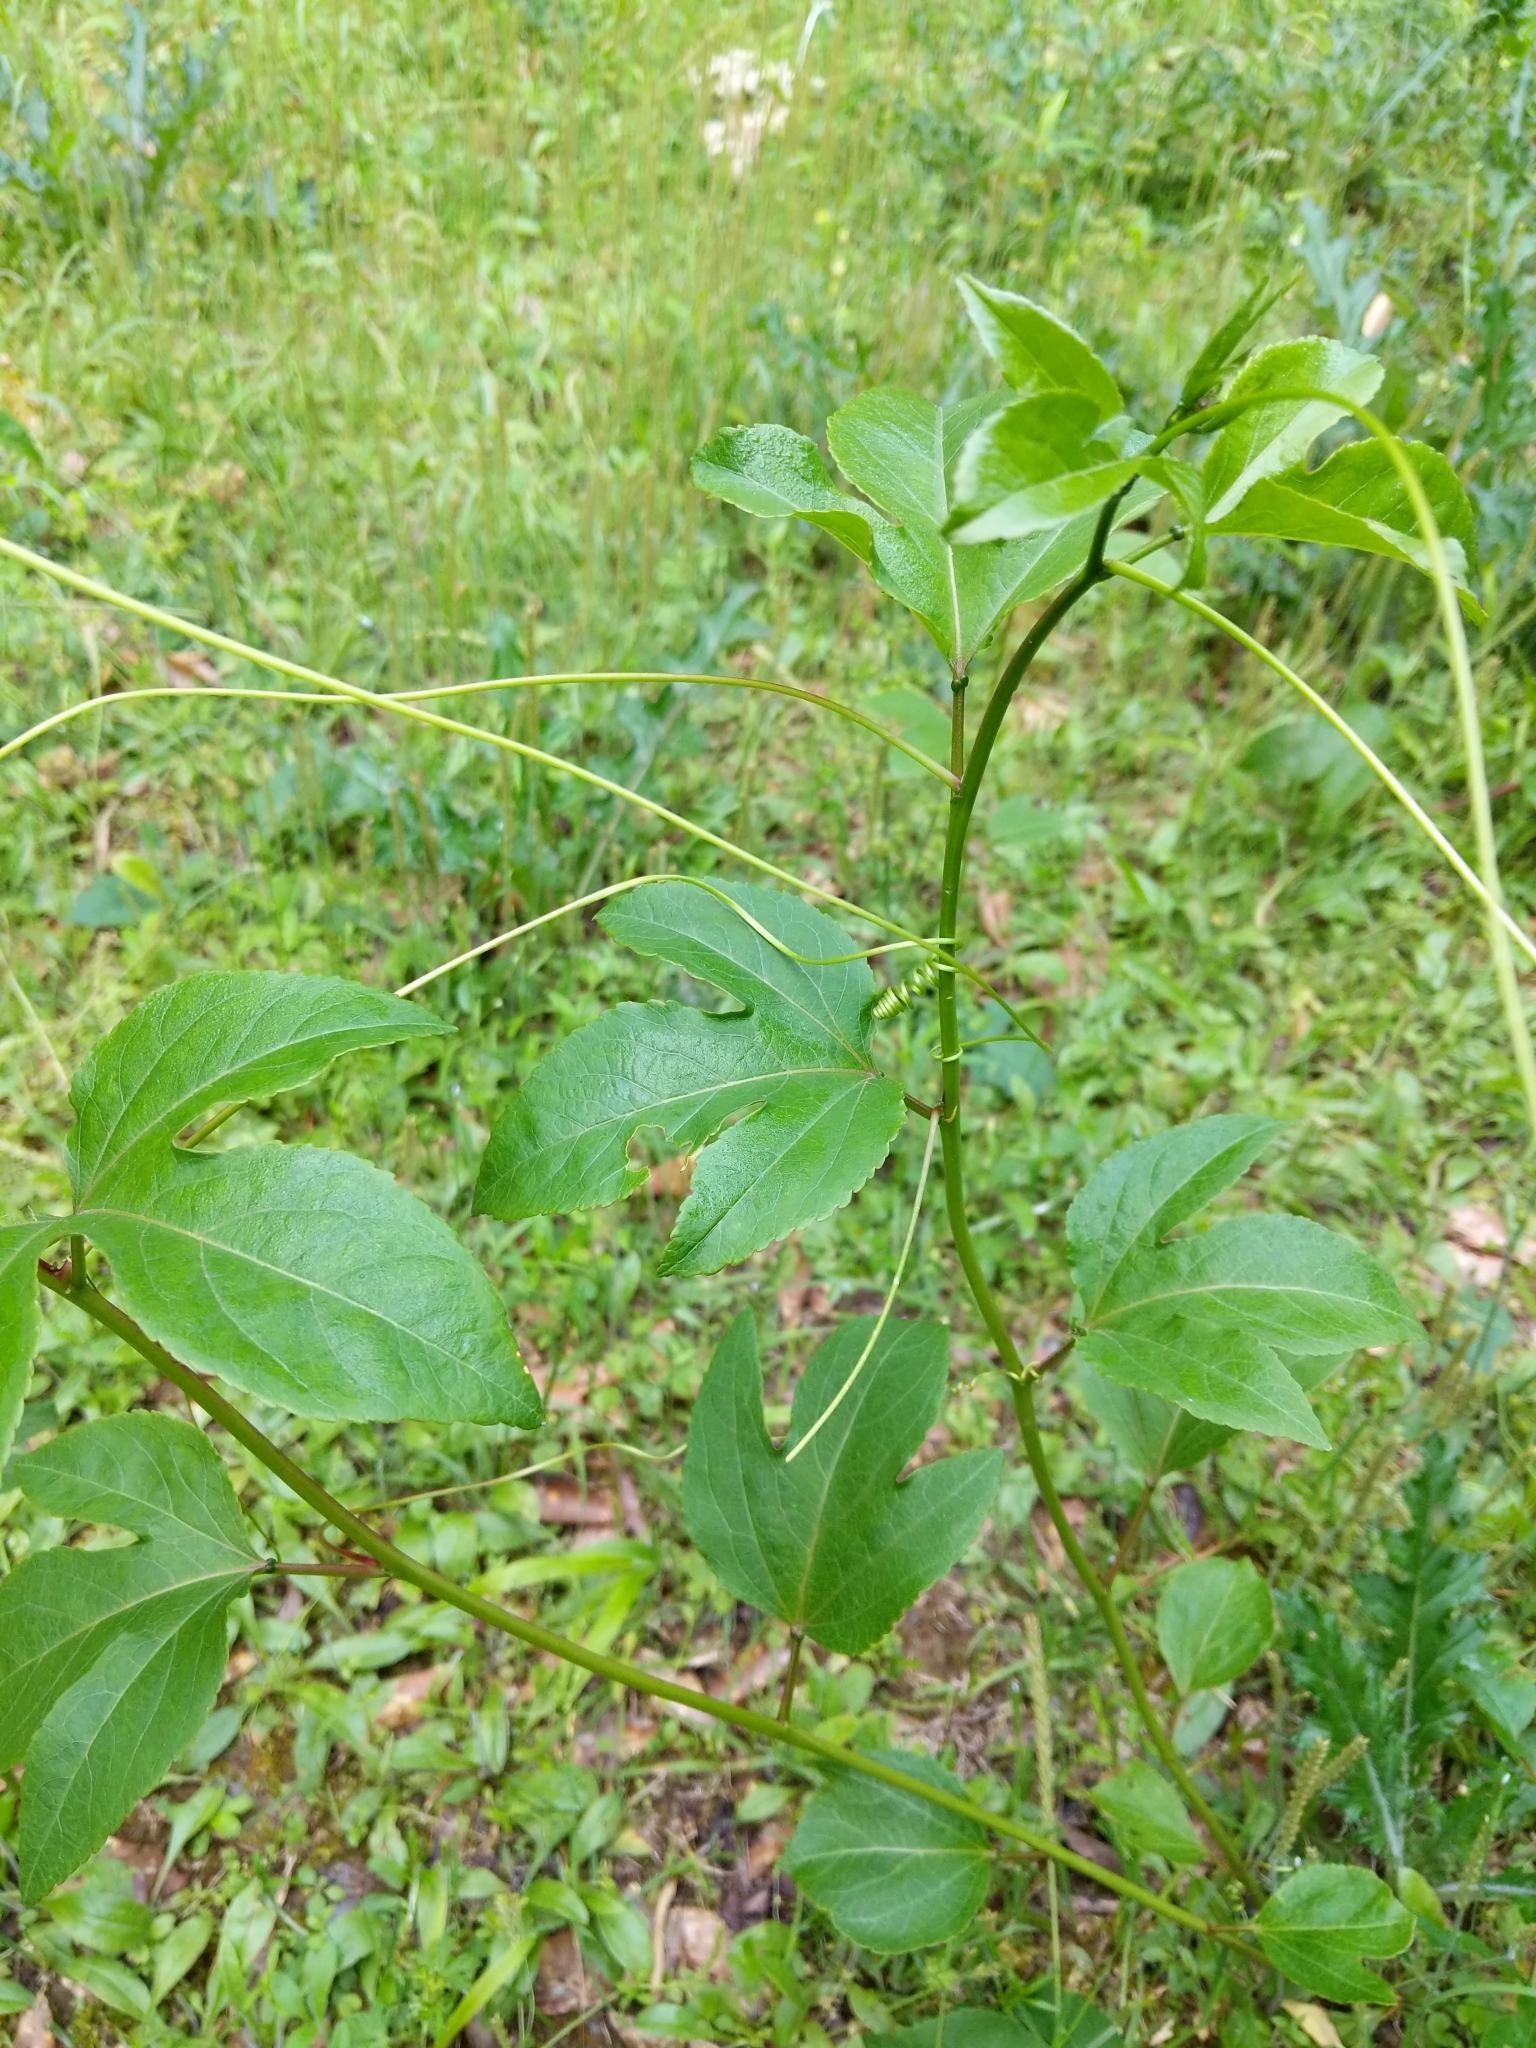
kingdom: Plantae
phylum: Tracheophyta
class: Magnoliopsida
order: Malpighiales
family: Passifloraceae
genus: Passiflora
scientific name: Passiflora incarnata
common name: Apricot-vine
